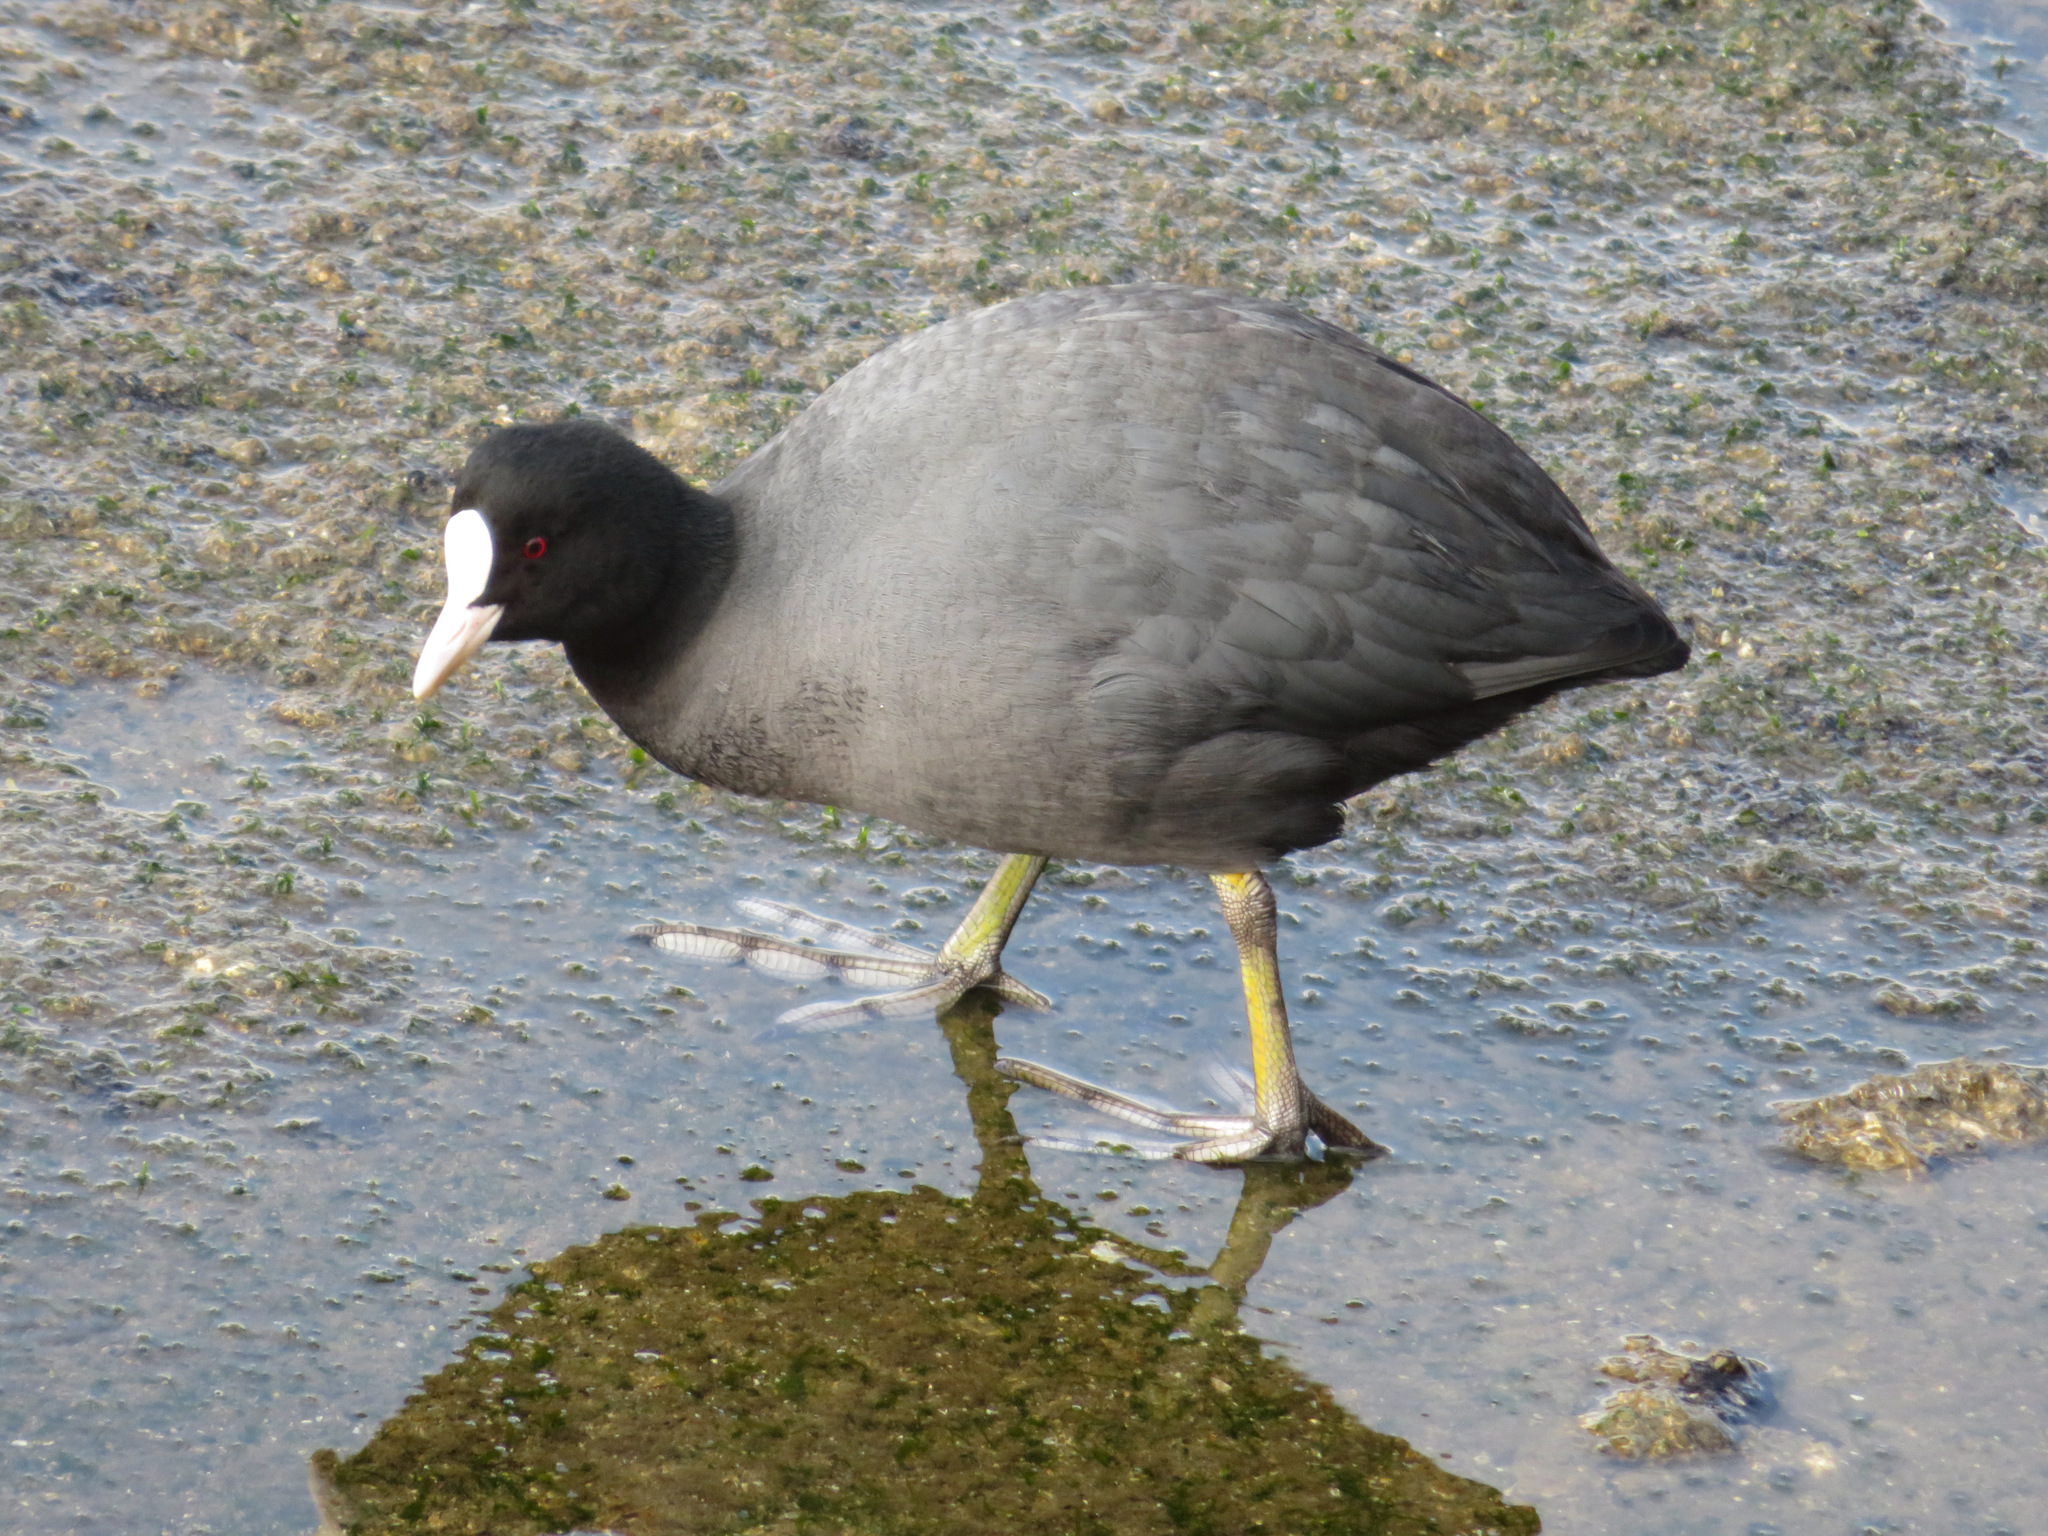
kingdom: Animalia
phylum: Chordata
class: Aves
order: Gruiformes
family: Rallidae
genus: Fulica
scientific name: Fulica atra
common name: Eurasian coot
